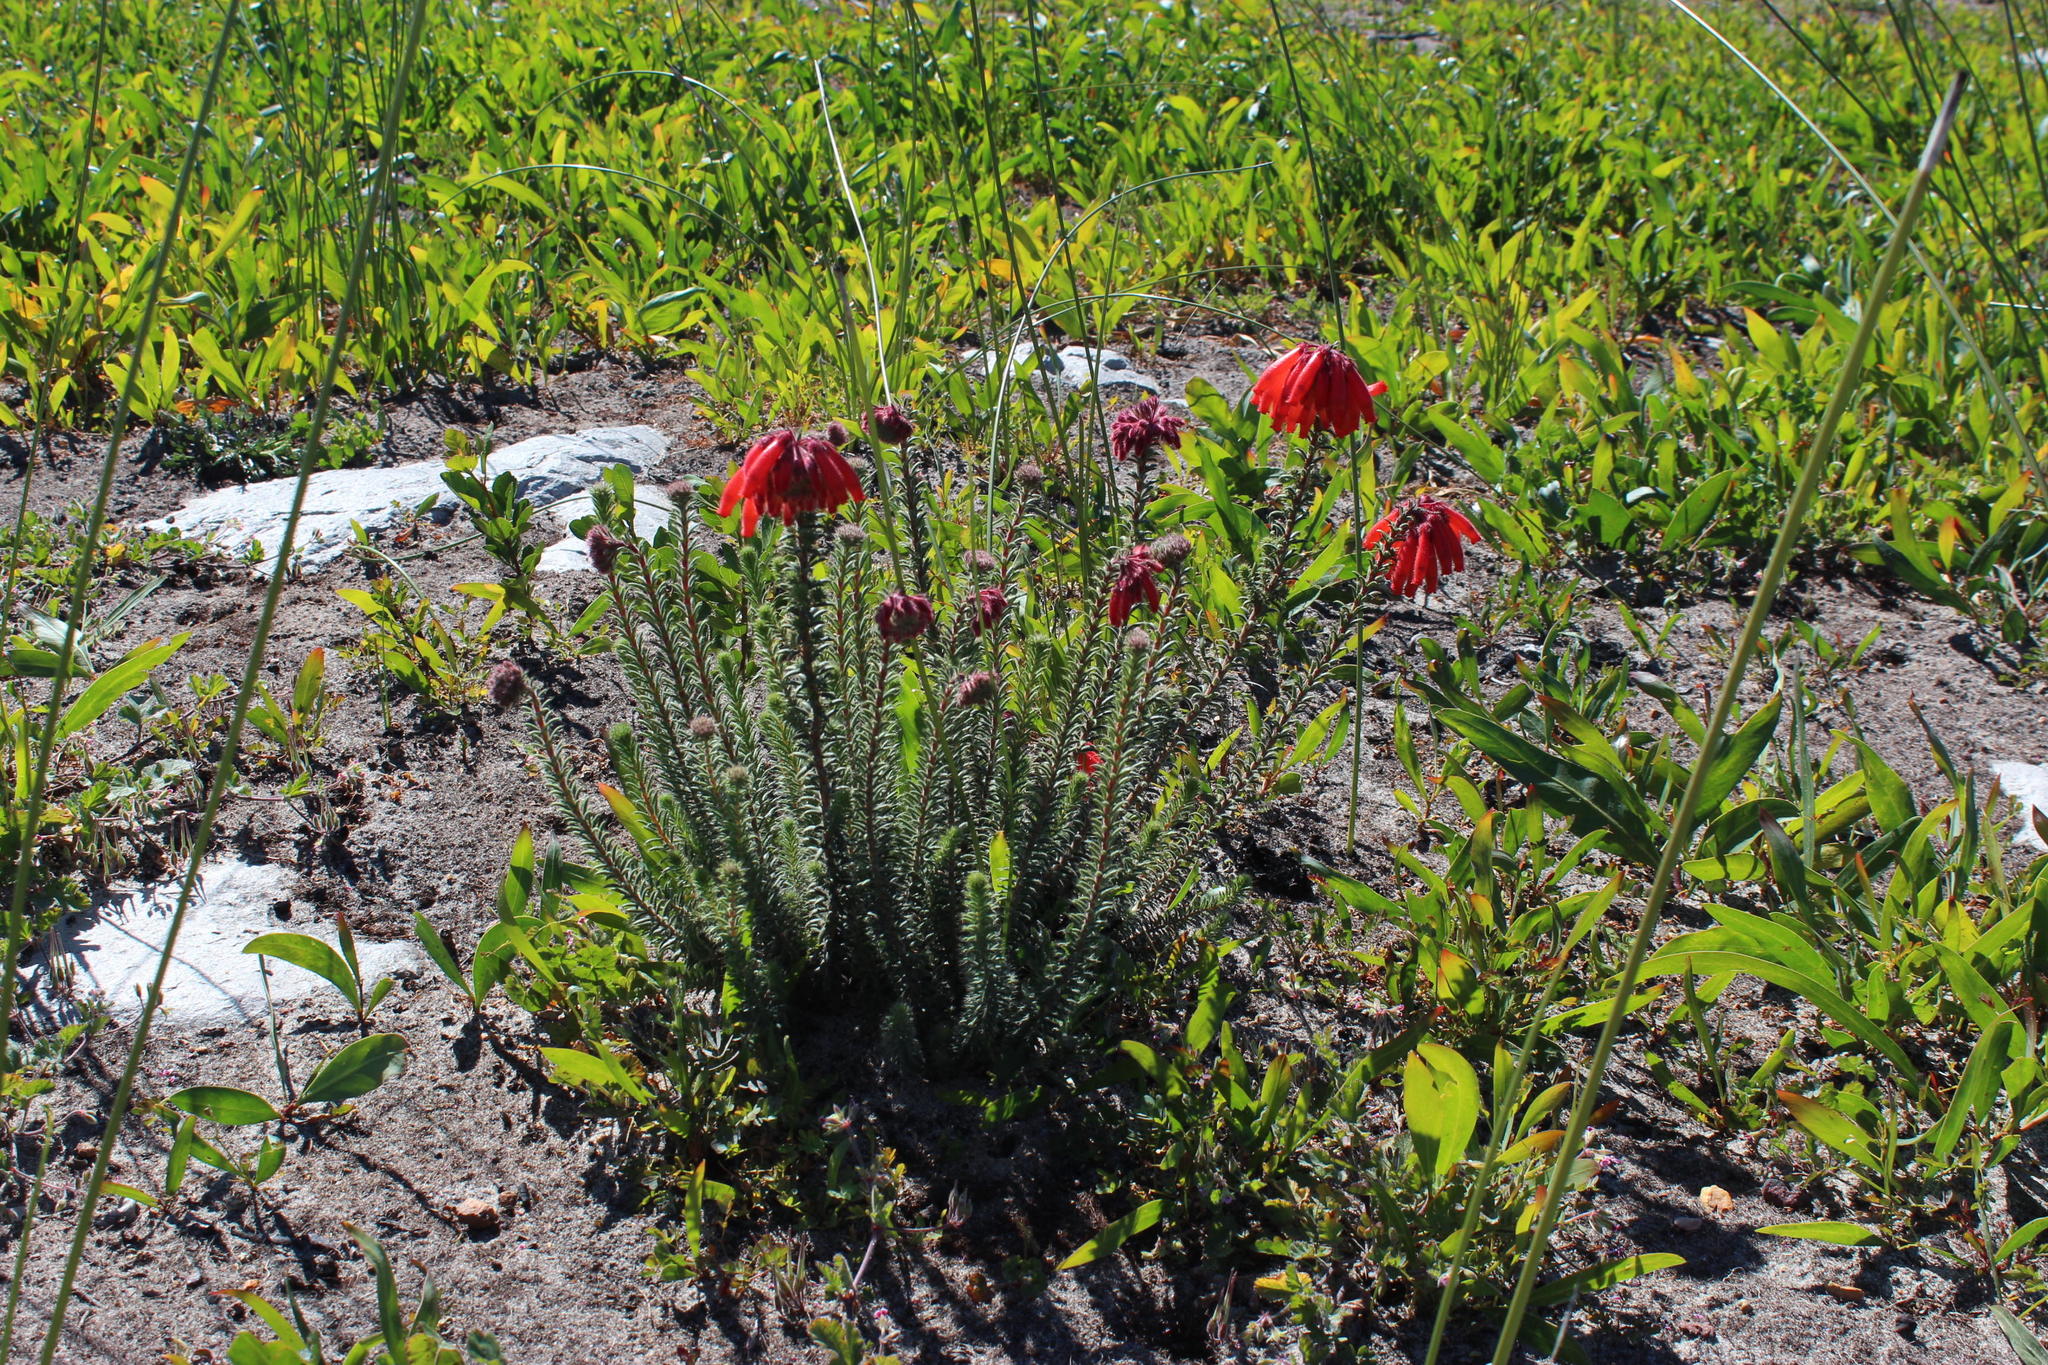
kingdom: Plantae
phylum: Tracheophyta
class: Magnoliopsida
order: Ericales
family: Ericaceae
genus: Erica
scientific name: Erica cerinthoides
